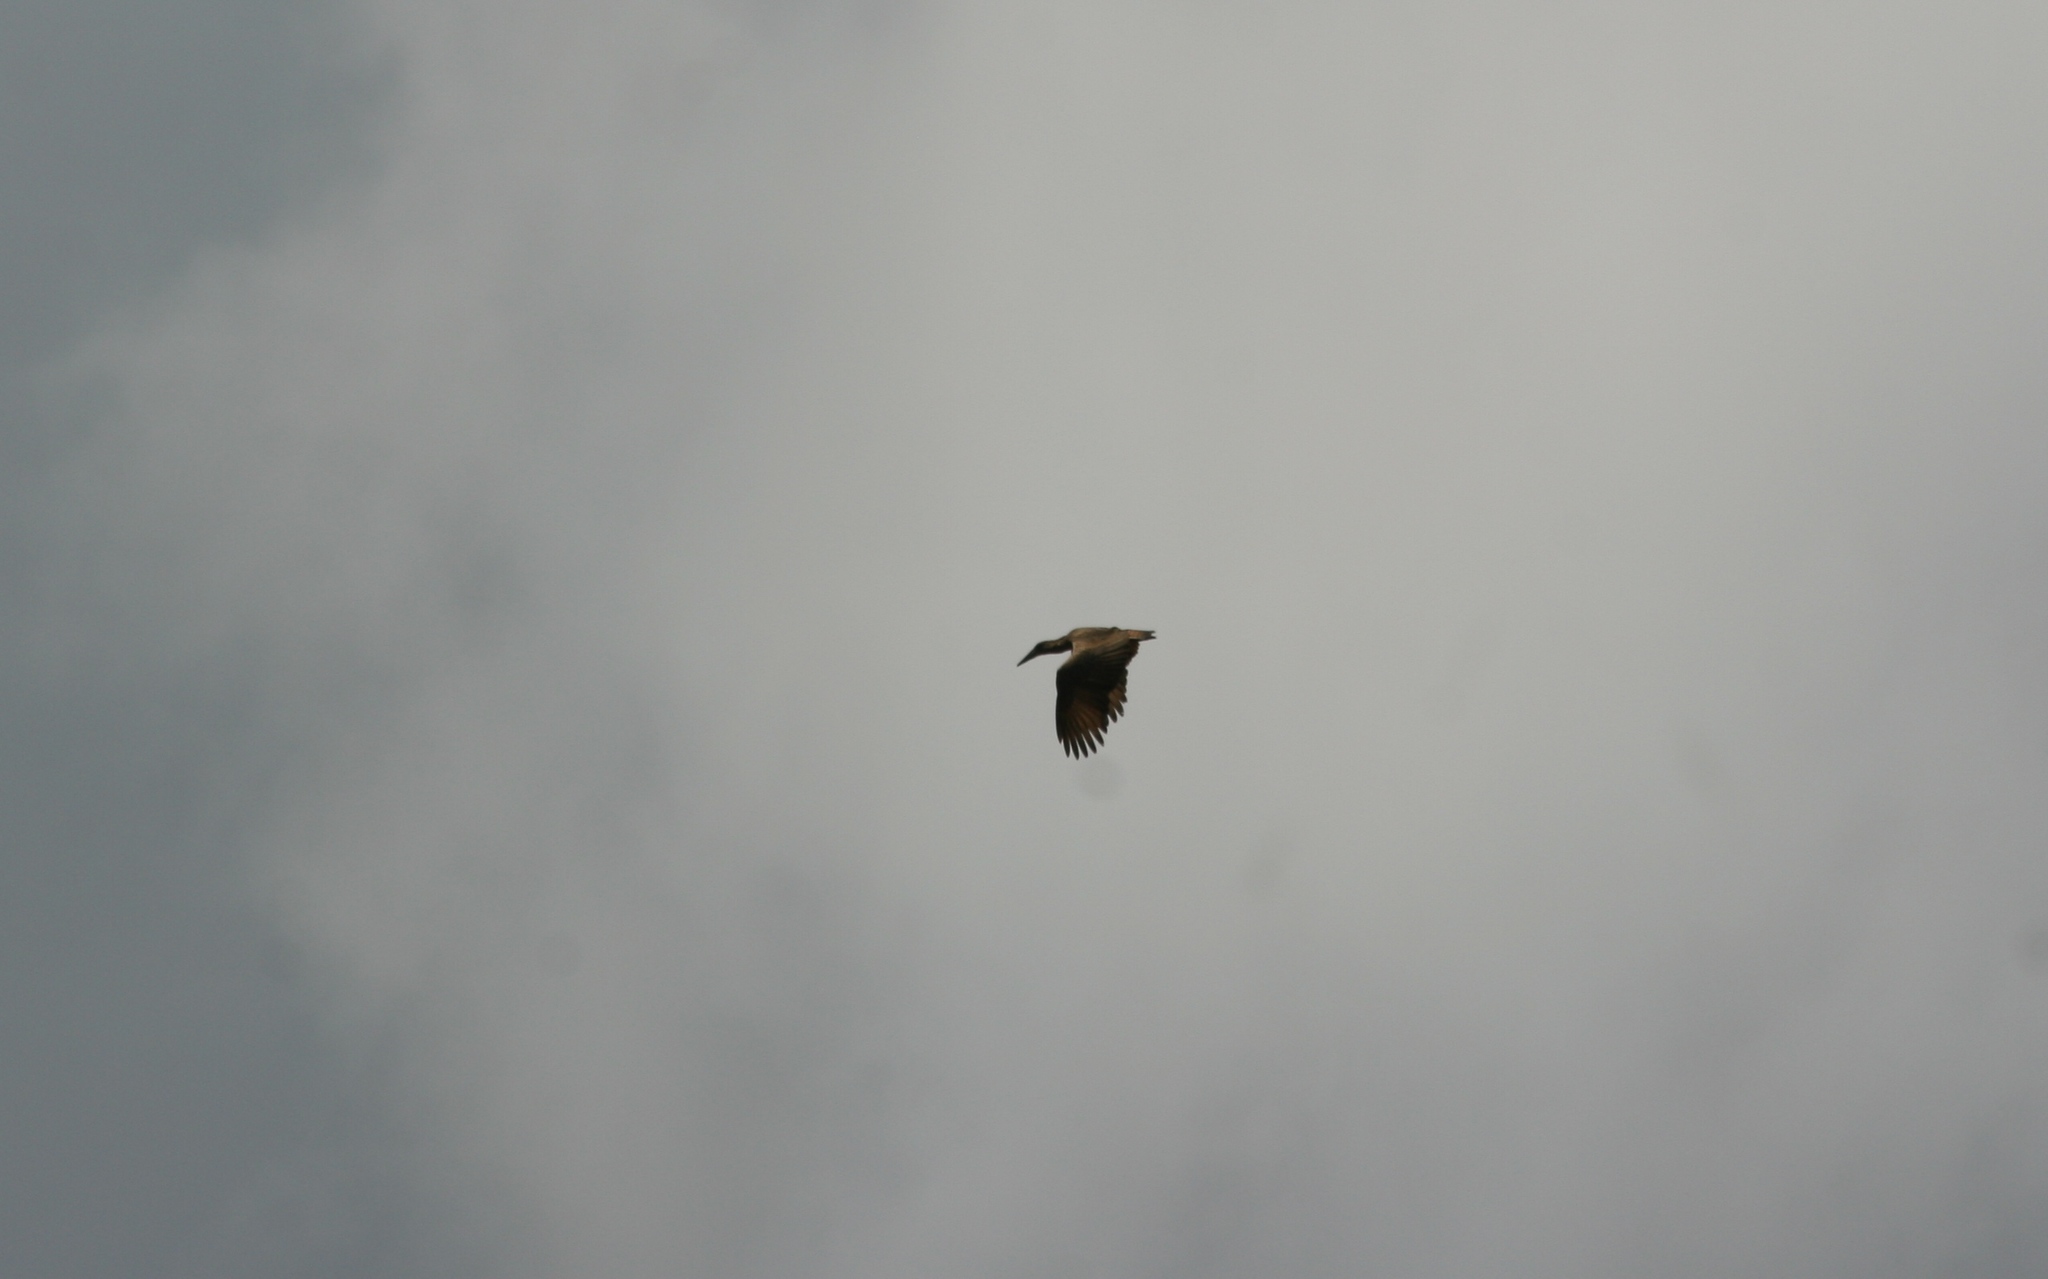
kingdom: Animalia
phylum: Chordata
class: Aves
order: Pelecaniformes
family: Scopidae
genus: Scopus
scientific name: Scopus umbretta
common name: Hamerkop
